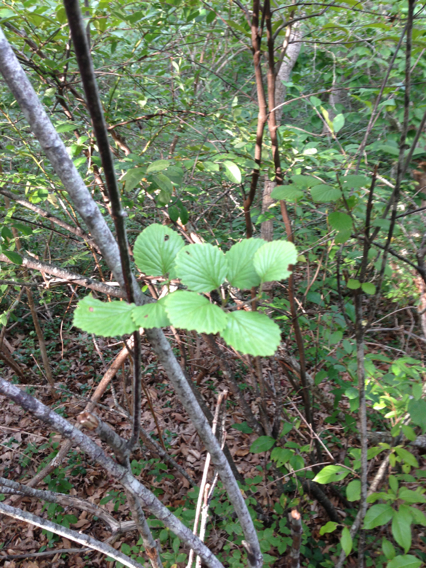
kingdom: Plantae
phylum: Tracheophyta
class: Magnoliopsida
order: Dipsacales
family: Viburnaceae
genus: Viburnum
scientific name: Viburnum dentatum
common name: Arrow-wood
